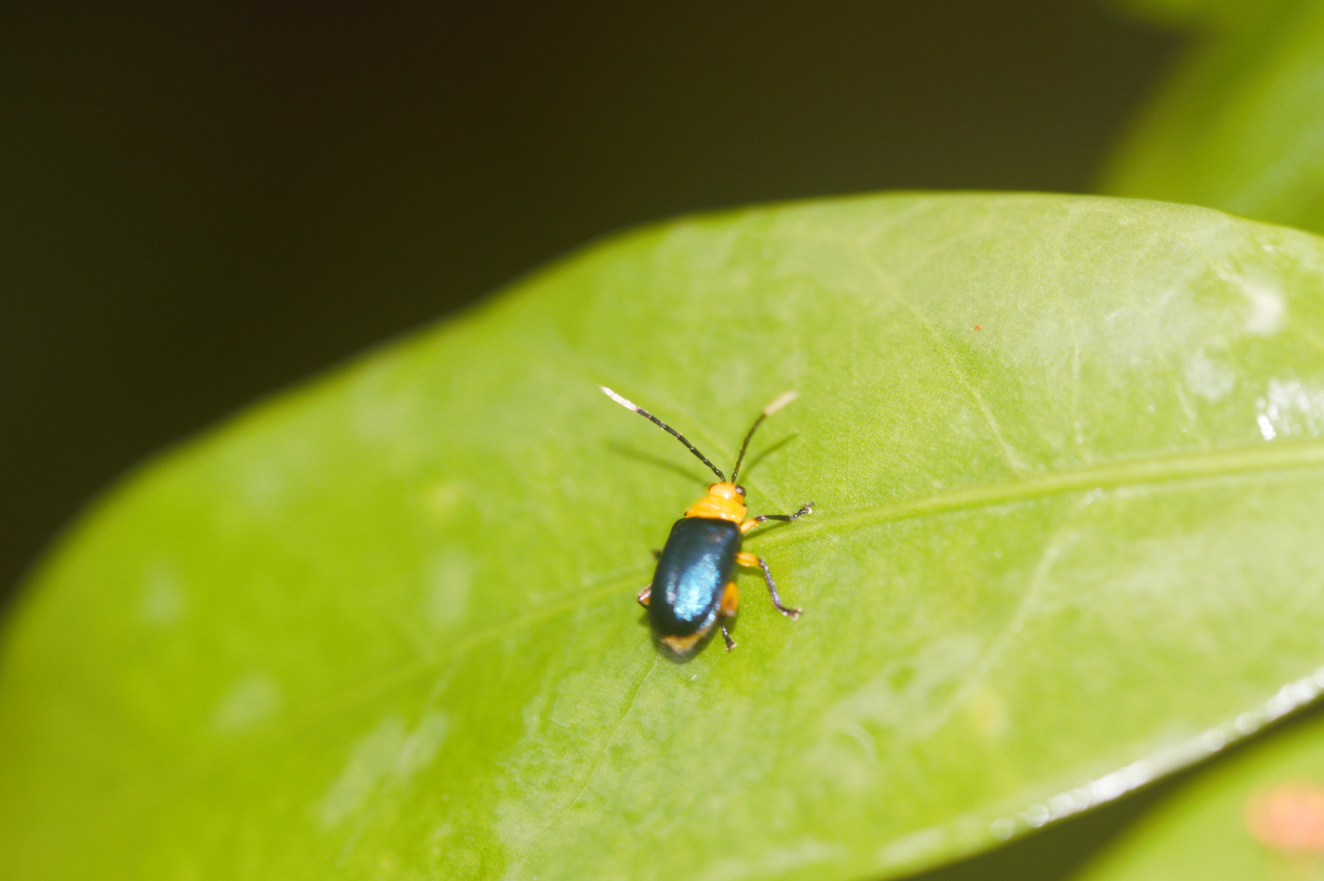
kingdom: Animalia
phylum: Arthropoda
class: Insecta
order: Coleoptera
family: Chrysomelidae
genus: Monomacra
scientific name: Monomacra sponsa
